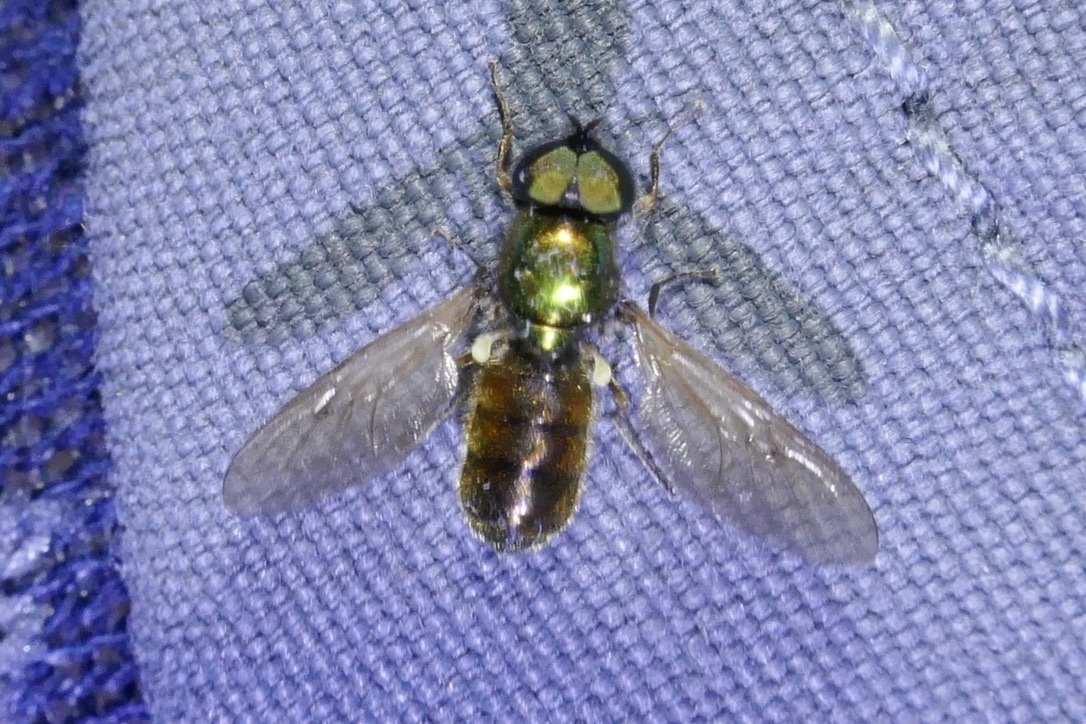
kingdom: Animalia
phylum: Arthropoda
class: Insecta
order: Diptera
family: Stratiomyidae
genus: Chloromyia
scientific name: Chloromyia formosa
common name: Soldier fly
